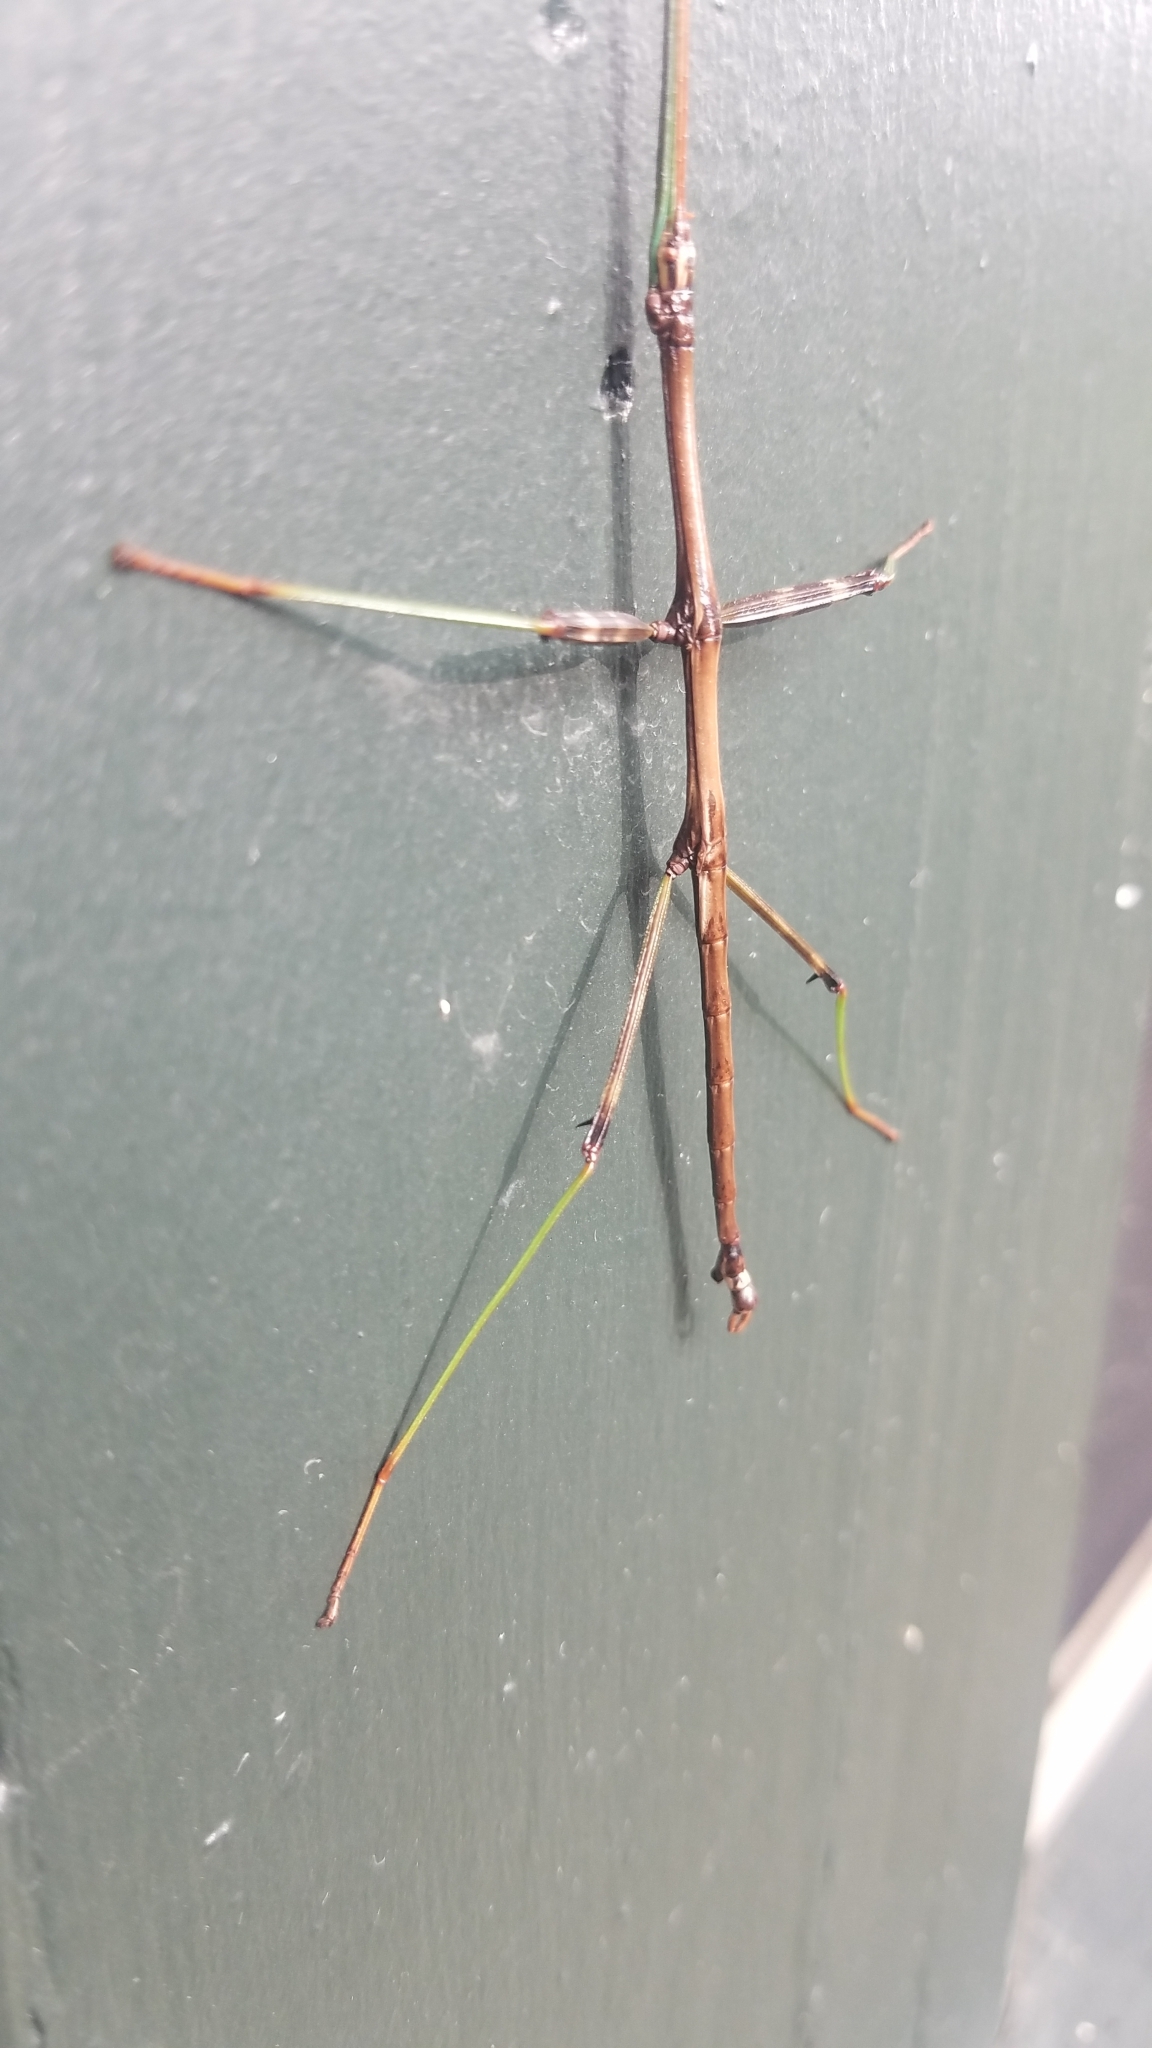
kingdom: Animalia
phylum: Arthropoda
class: Insecta
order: Phasmida
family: Diapheromeridae
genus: Diapheromera
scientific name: Diapheromera femorata
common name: Common american walkingstick
